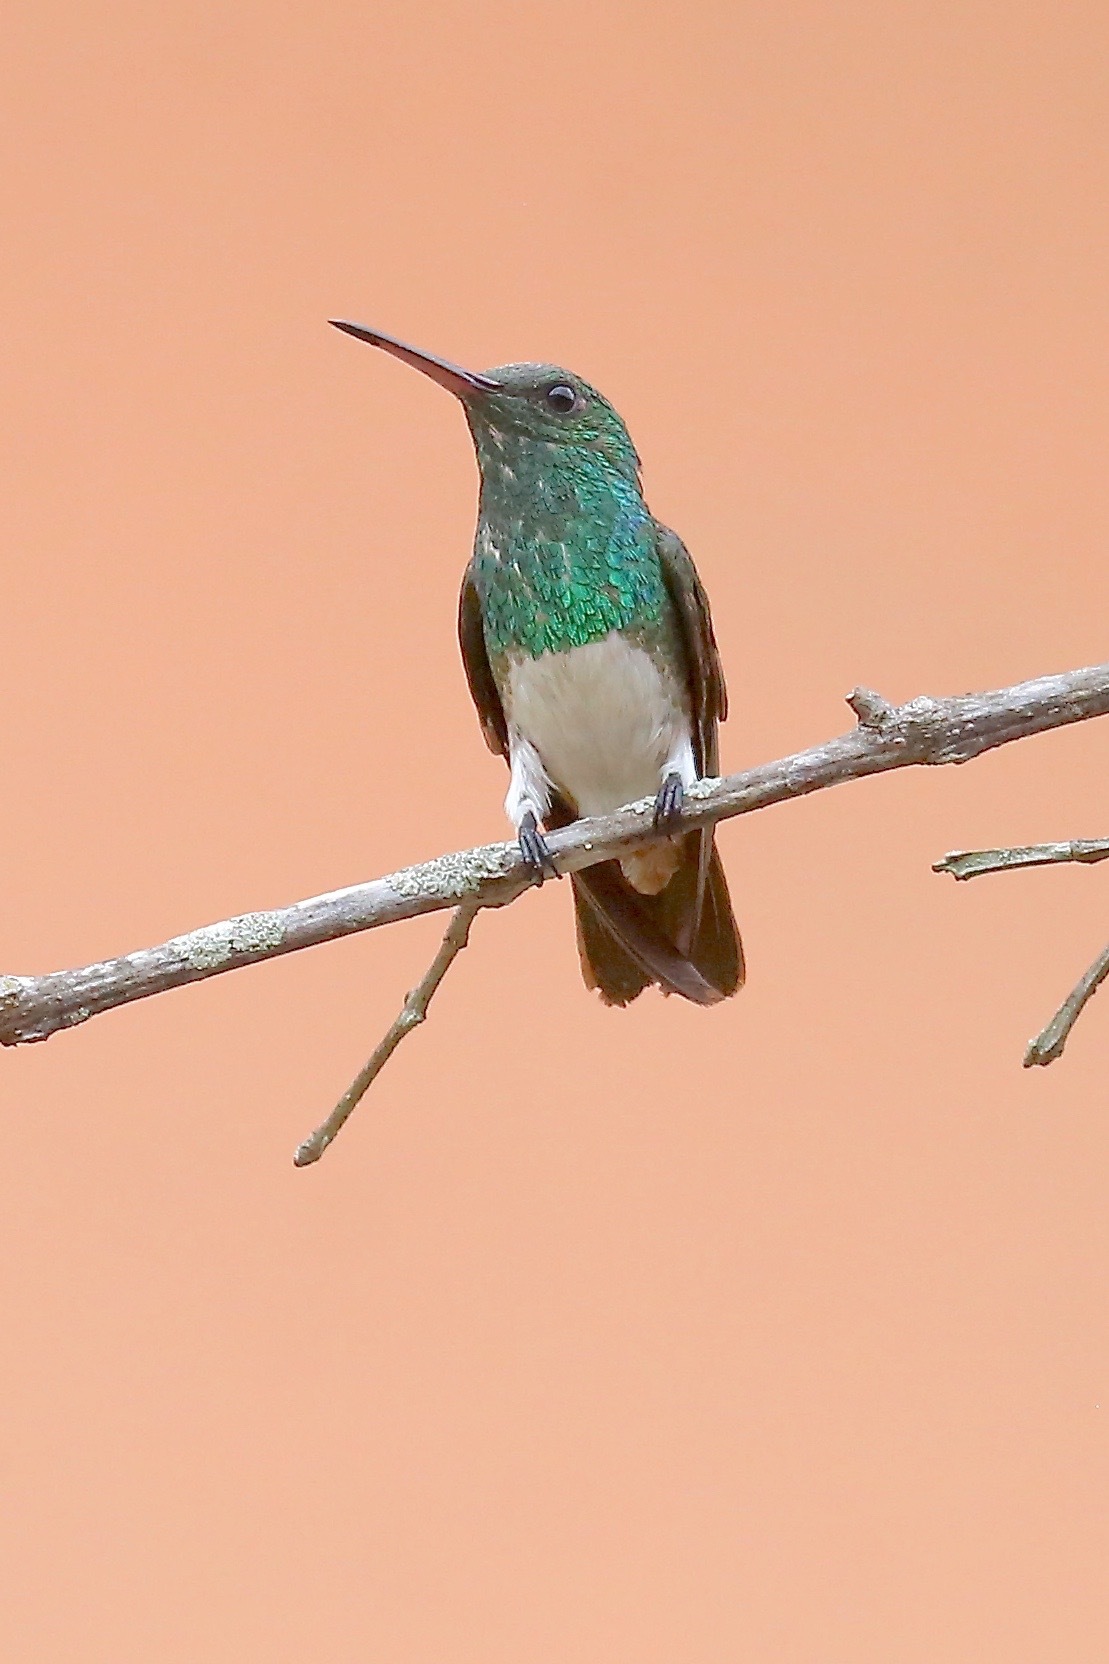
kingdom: Animalia
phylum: Chordata
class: Aves
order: Apodiformes
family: Trochilidae
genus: Saucerottia
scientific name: Saucerottia edward
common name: Snowy-bellied hummingbird
